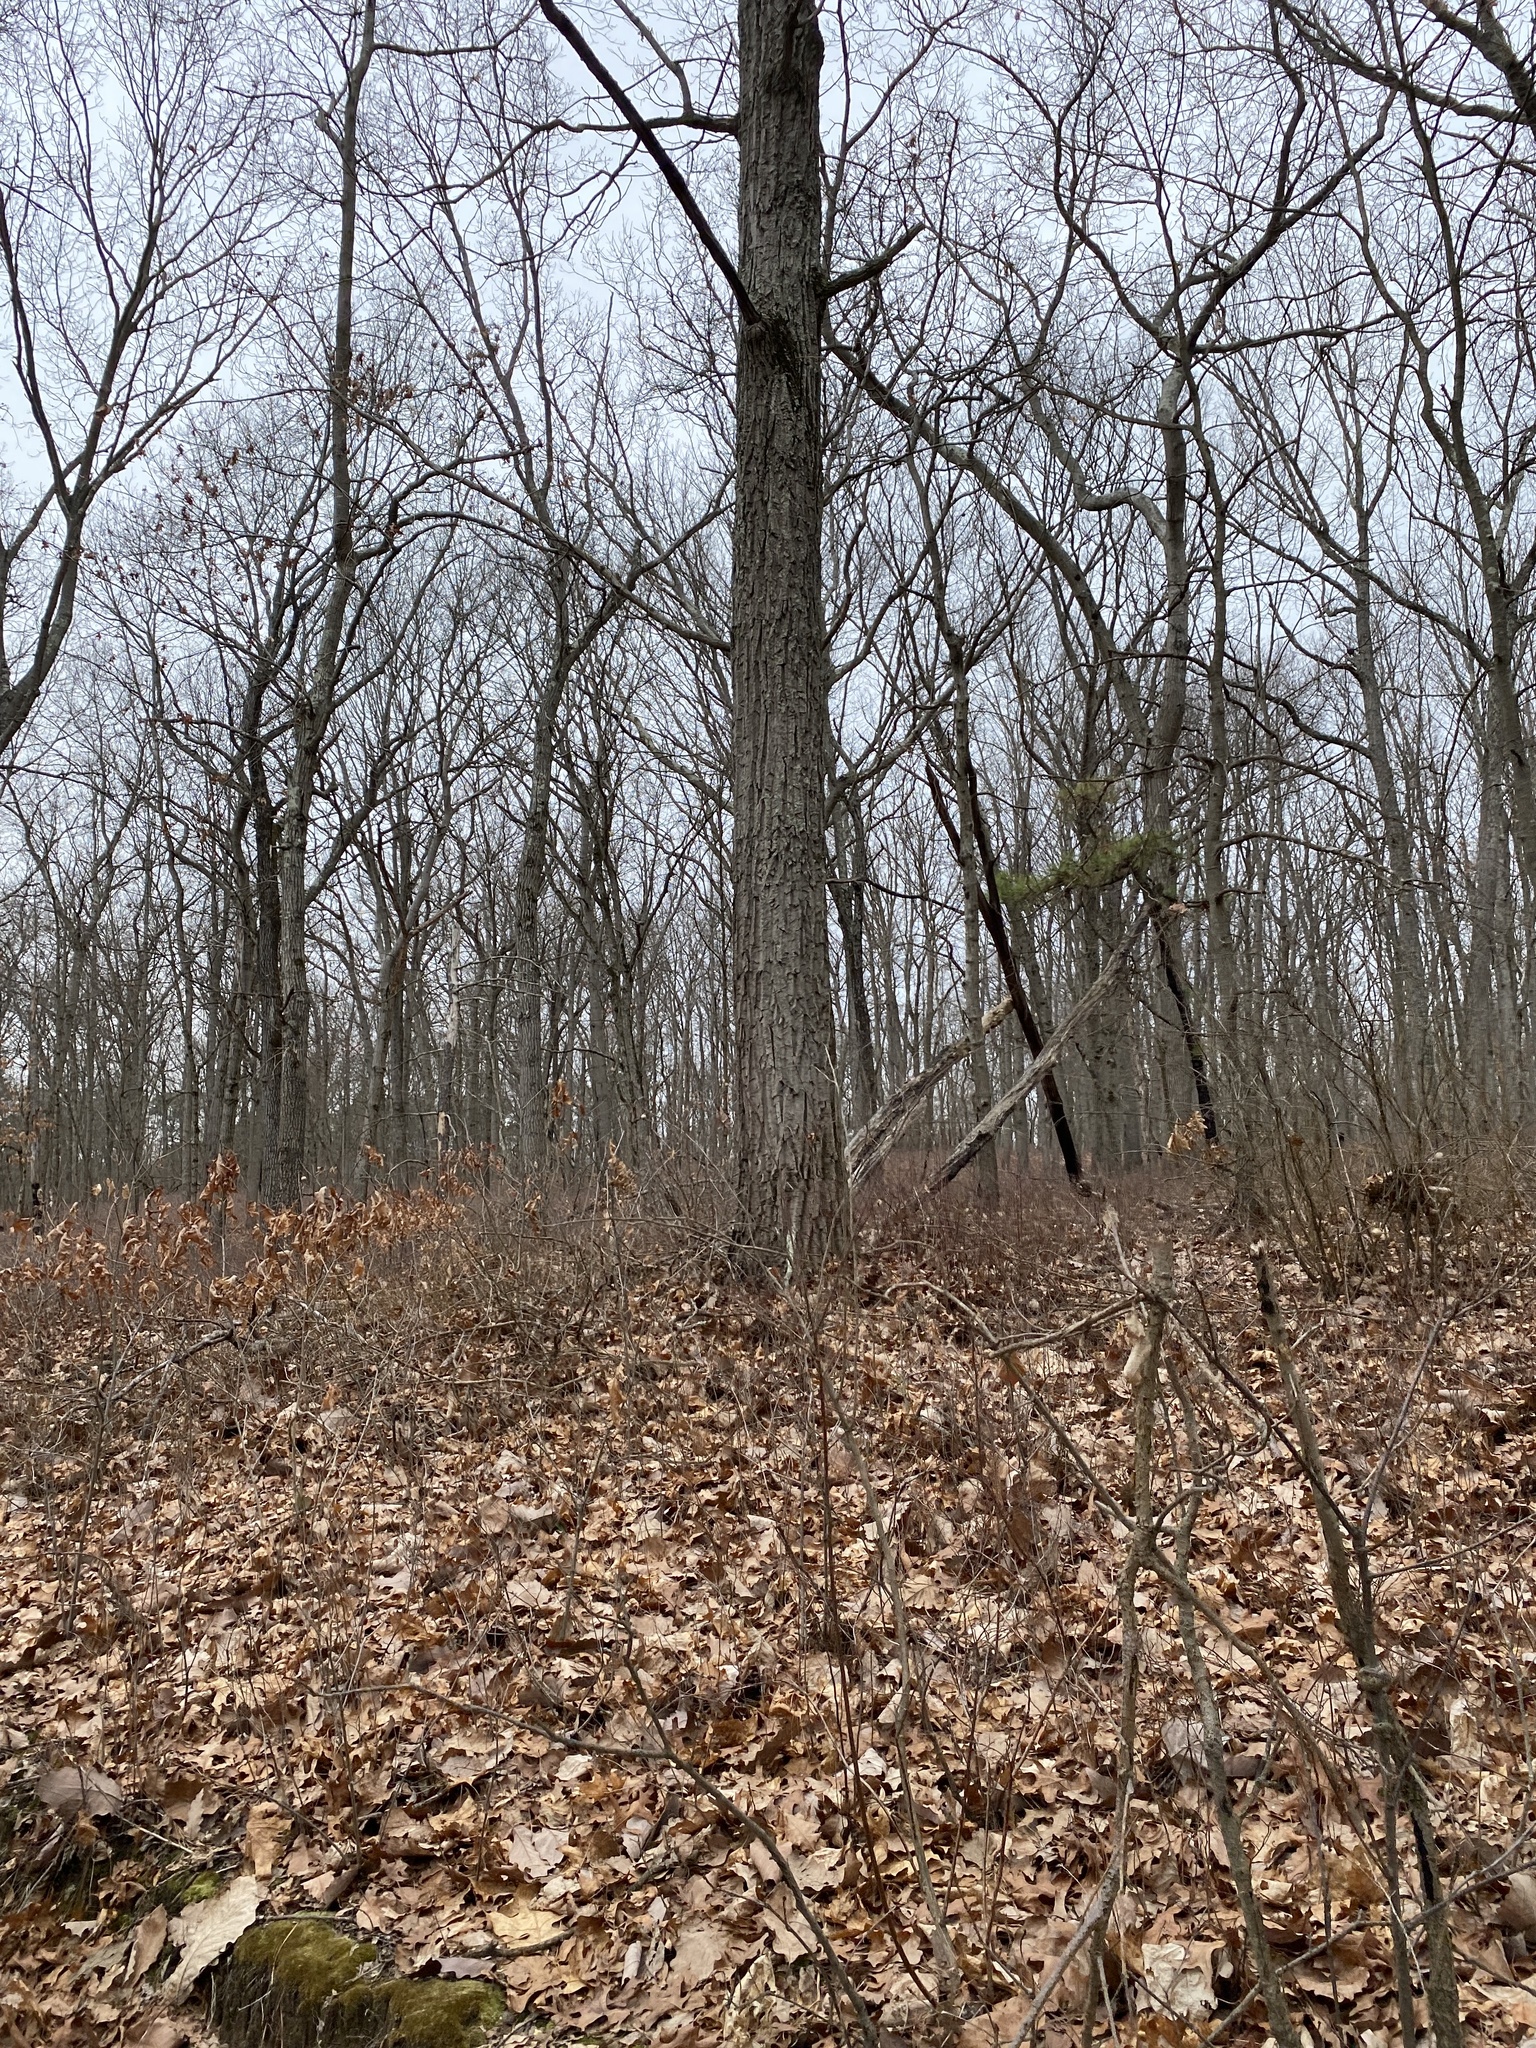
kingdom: Plantae
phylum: Tracheophyta
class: Magnoliopsida
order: Fagales
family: Fagaceae
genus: Quercus
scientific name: Quercus montana
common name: Chestnut oak
